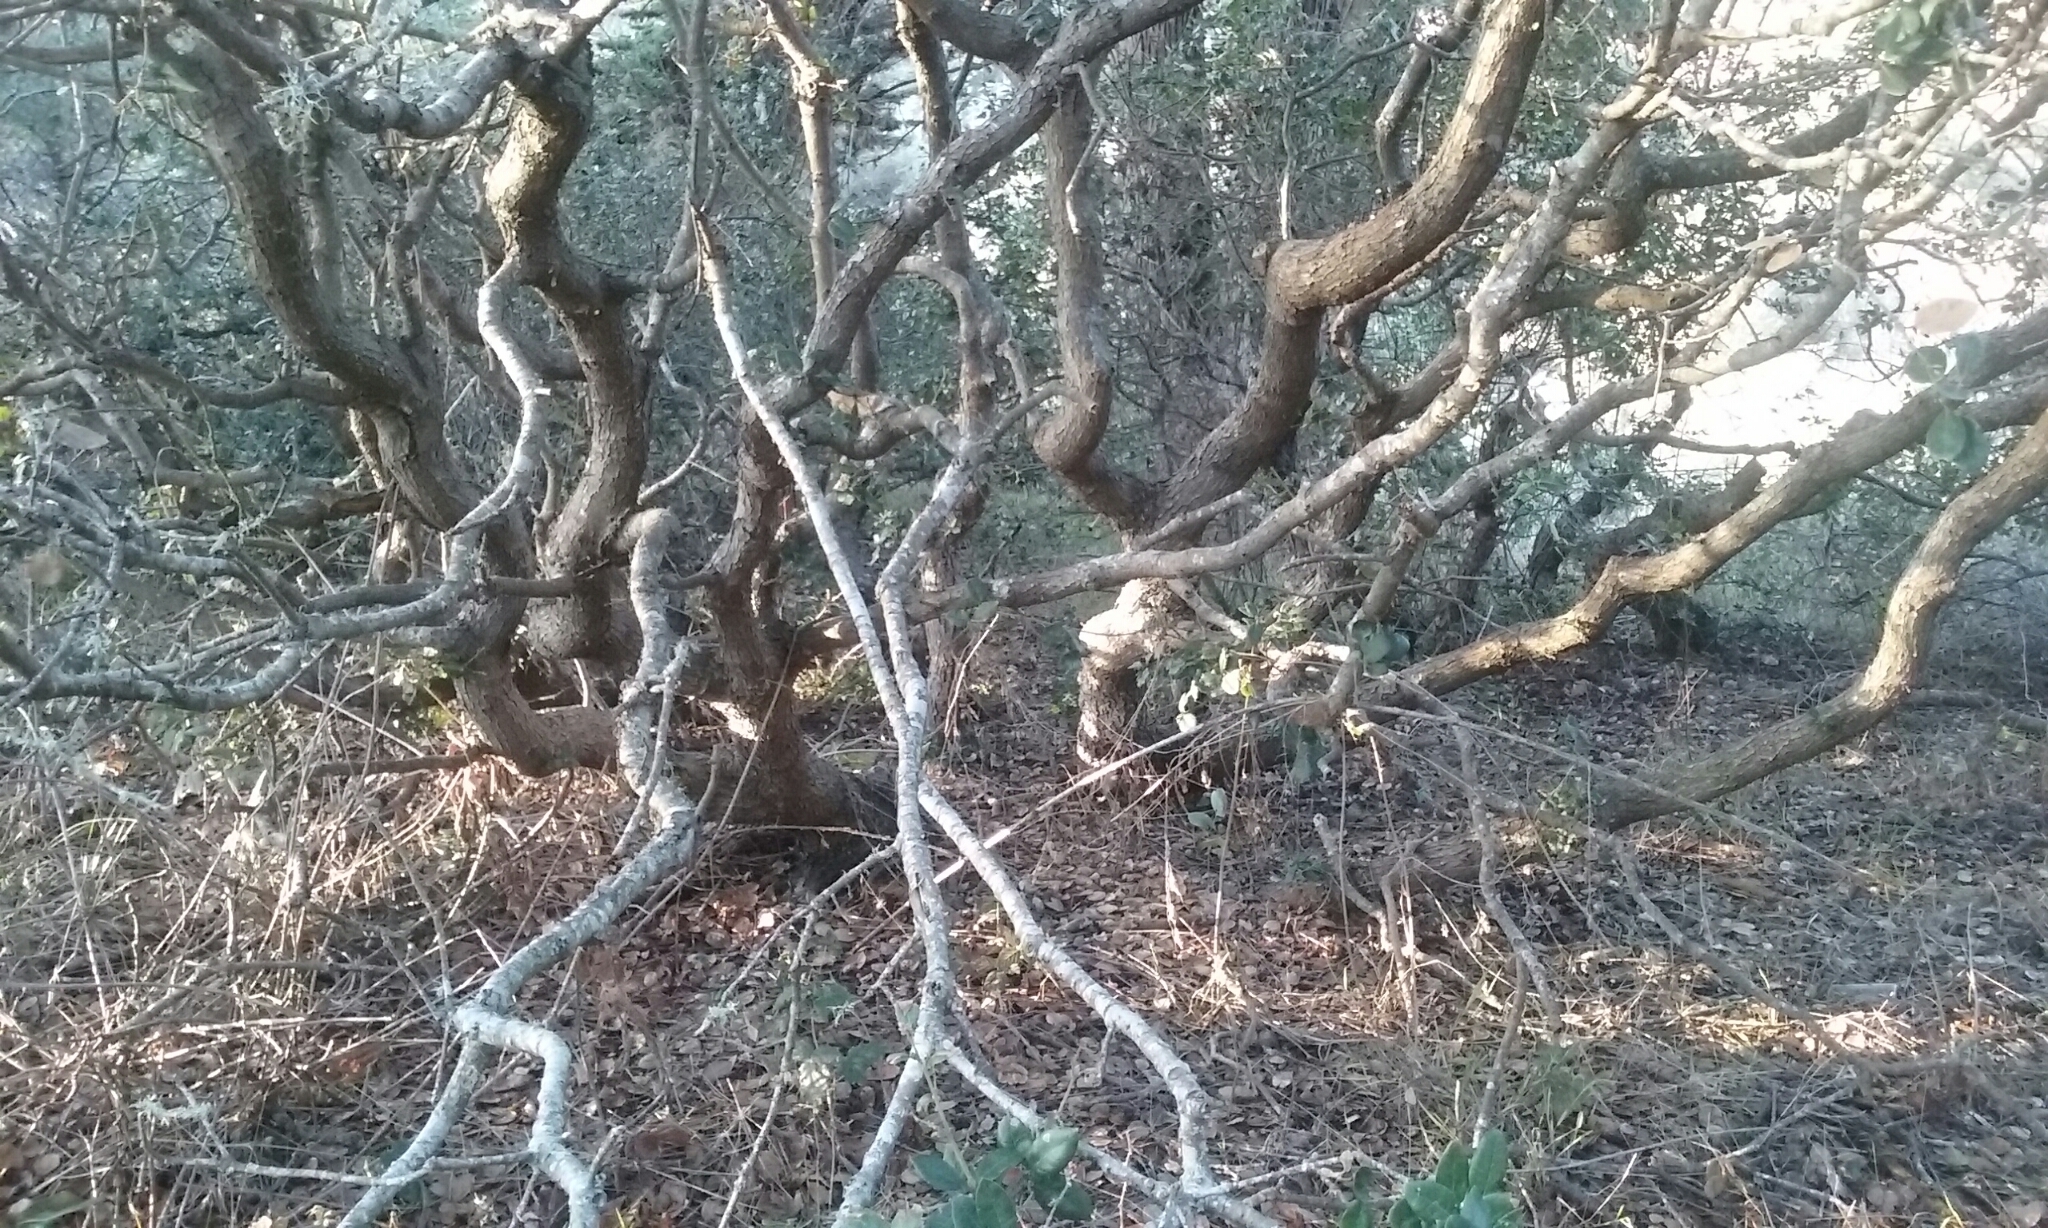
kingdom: Plantae
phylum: Tracheophyta
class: Magnoliopsida
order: Fagales
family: Fagaceae
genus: Quercus
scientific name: Quercus chrysolepis
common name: Canyon live oak
